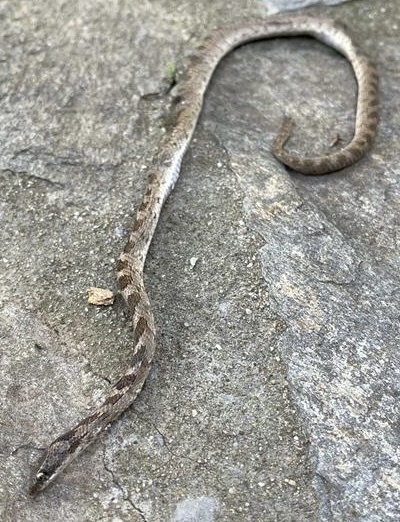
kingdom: Animalia
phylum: Chordata
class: Squamata
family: Colubridae
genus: Telescopus
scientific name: Telescopus fallax
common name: Cat snake
